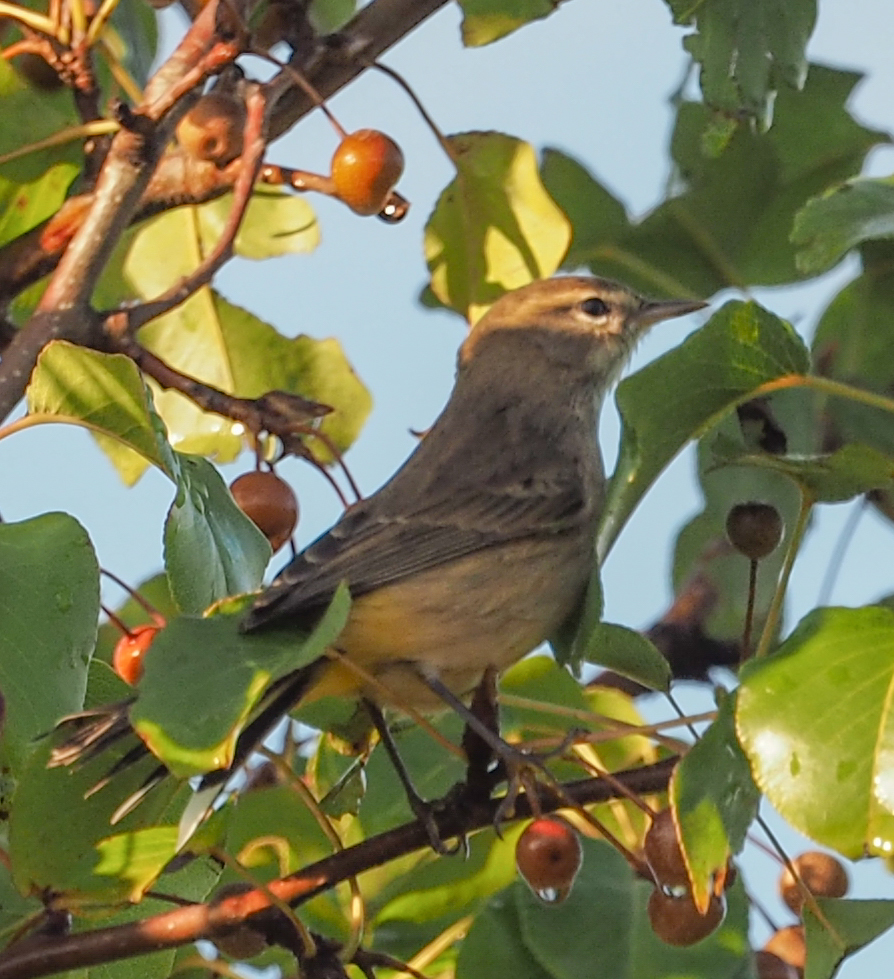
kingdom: Animalia
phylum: Chordata
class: Aves
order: Passeriformes
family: Parulidae
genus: Setophaga
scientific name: Setophaga palmarum
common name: Palm warbler
